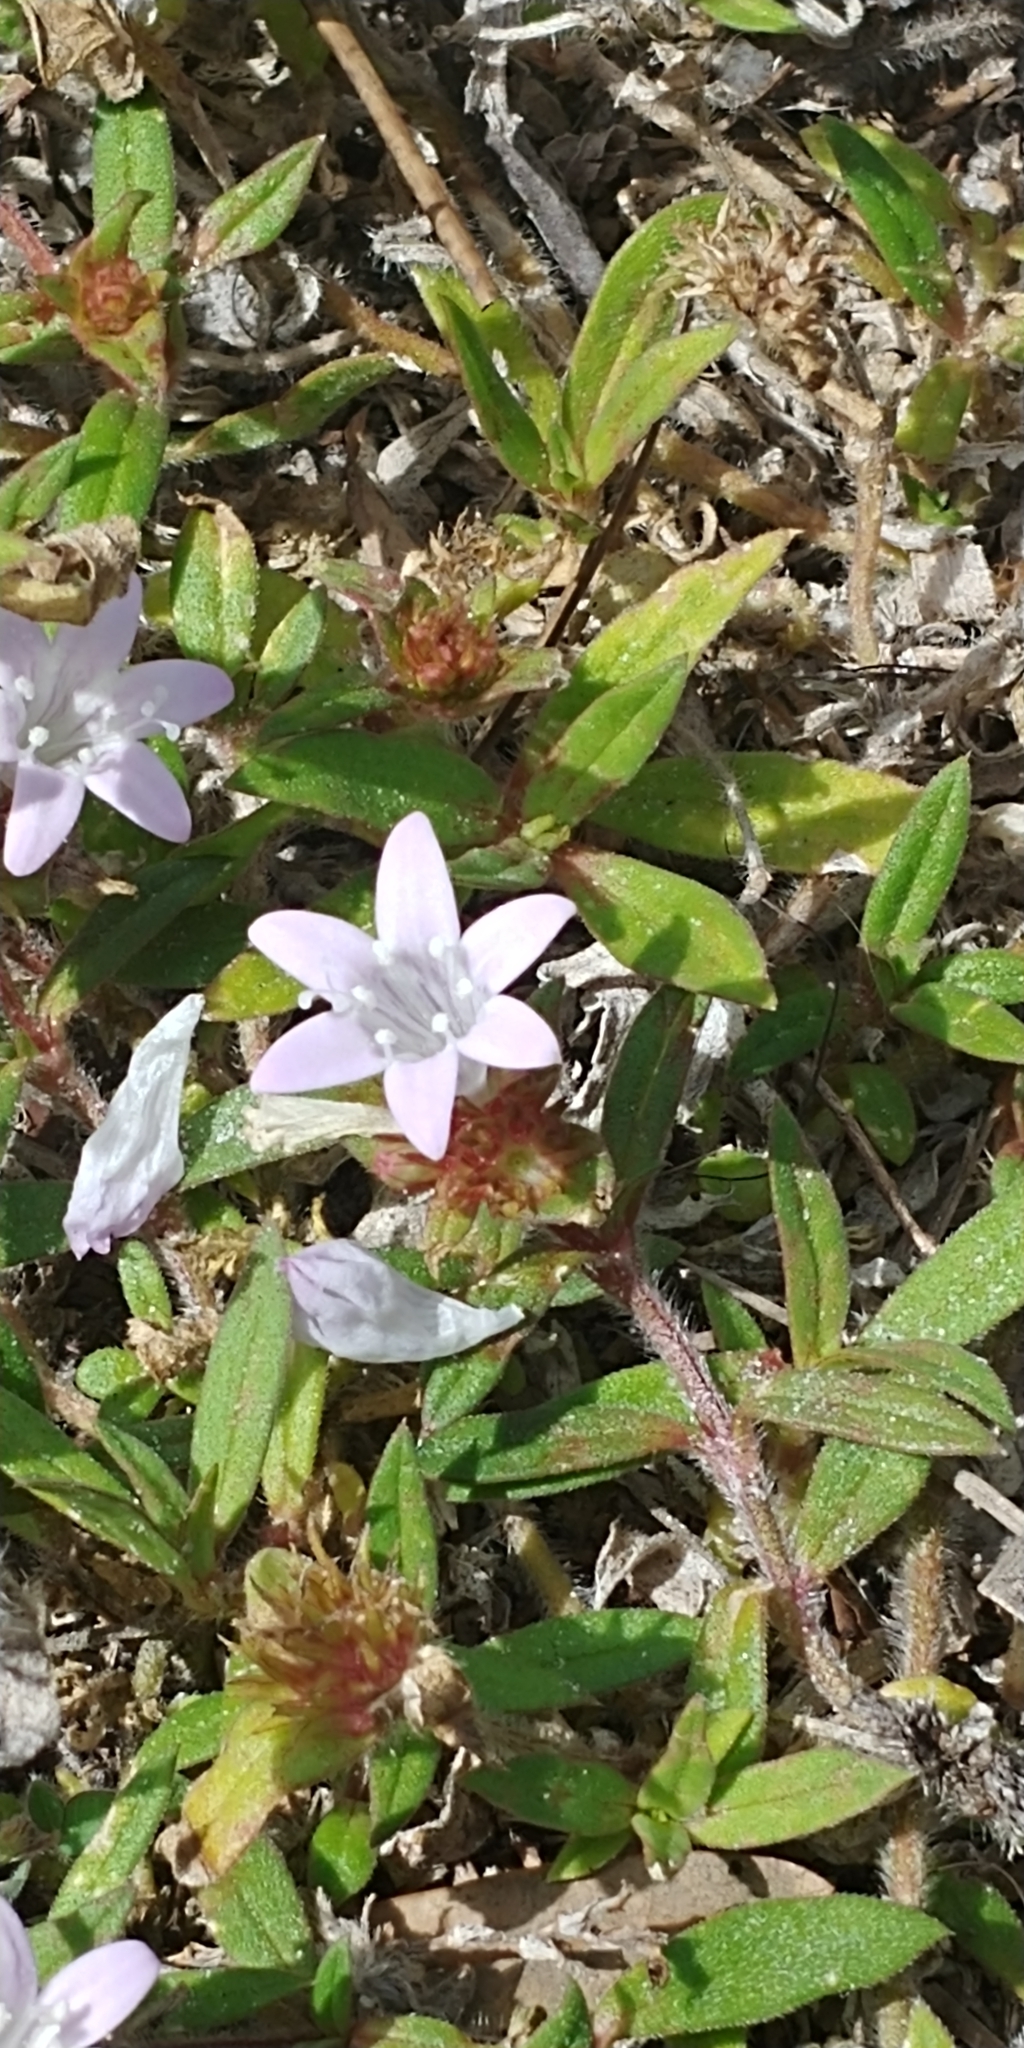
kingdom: Plantae
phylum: Tracheophyta
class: Magnoliopsida
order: Gentianales
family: Rubiaceae
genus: Richardia
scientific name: Richardia grandiflora
